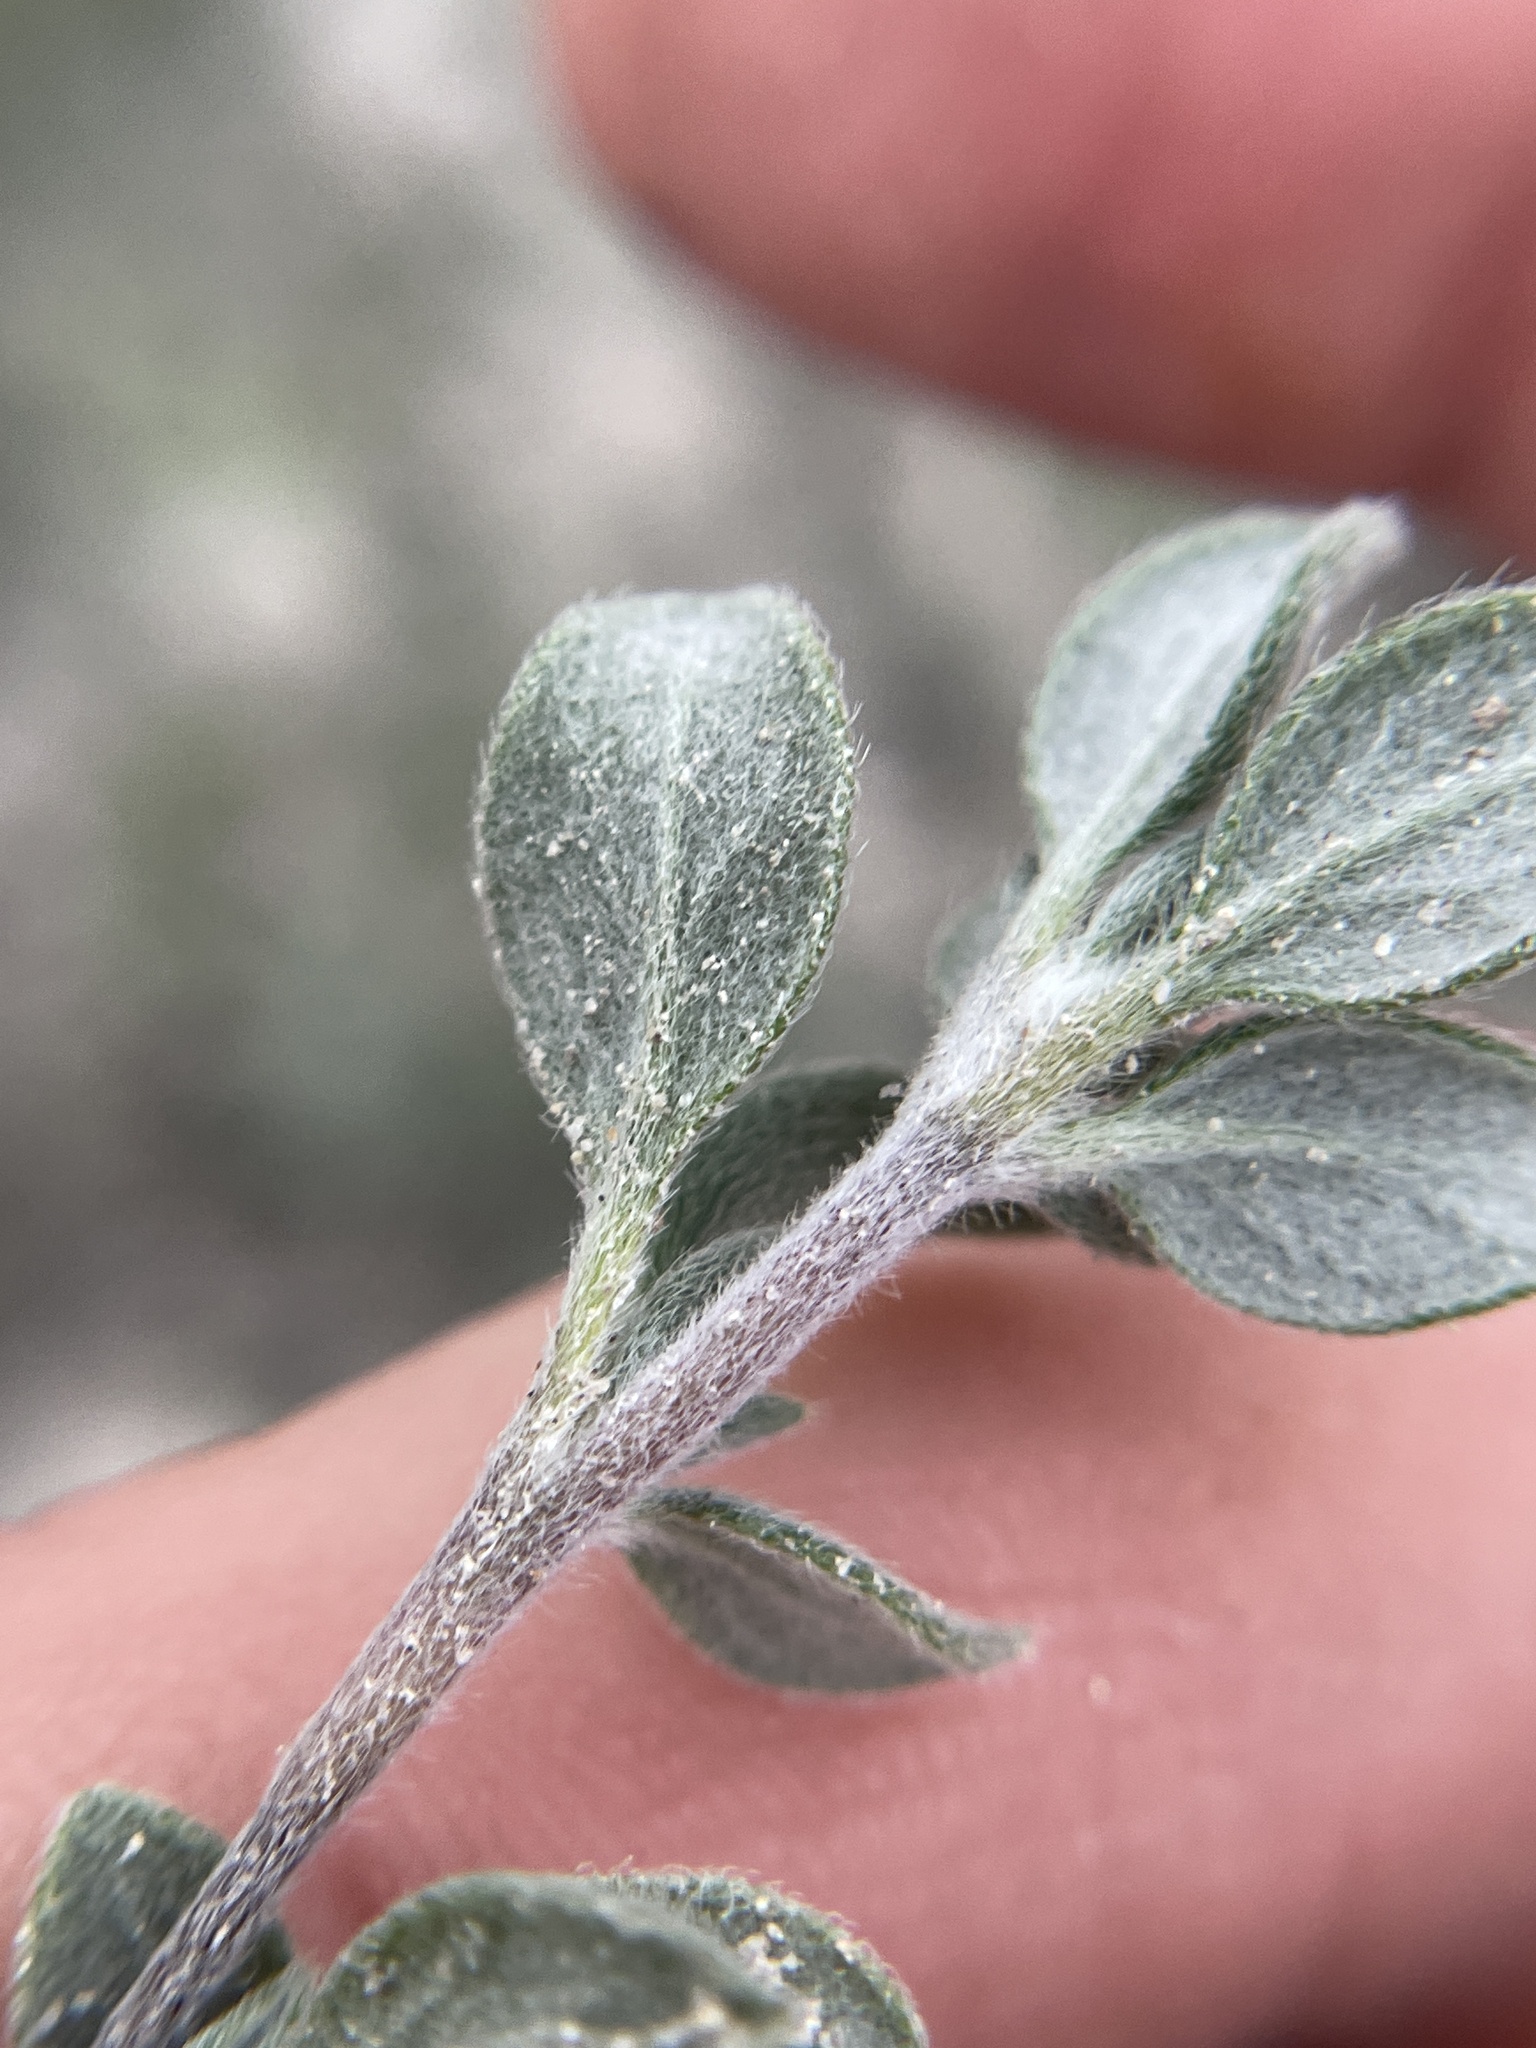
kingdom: Plantae
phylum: Tracheophyta
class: Magnoliopsida
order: Boraginales
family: Ehretiaceae
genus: Tiquilia
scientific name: Tiquilia canescens
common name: Hairy tiquilia
